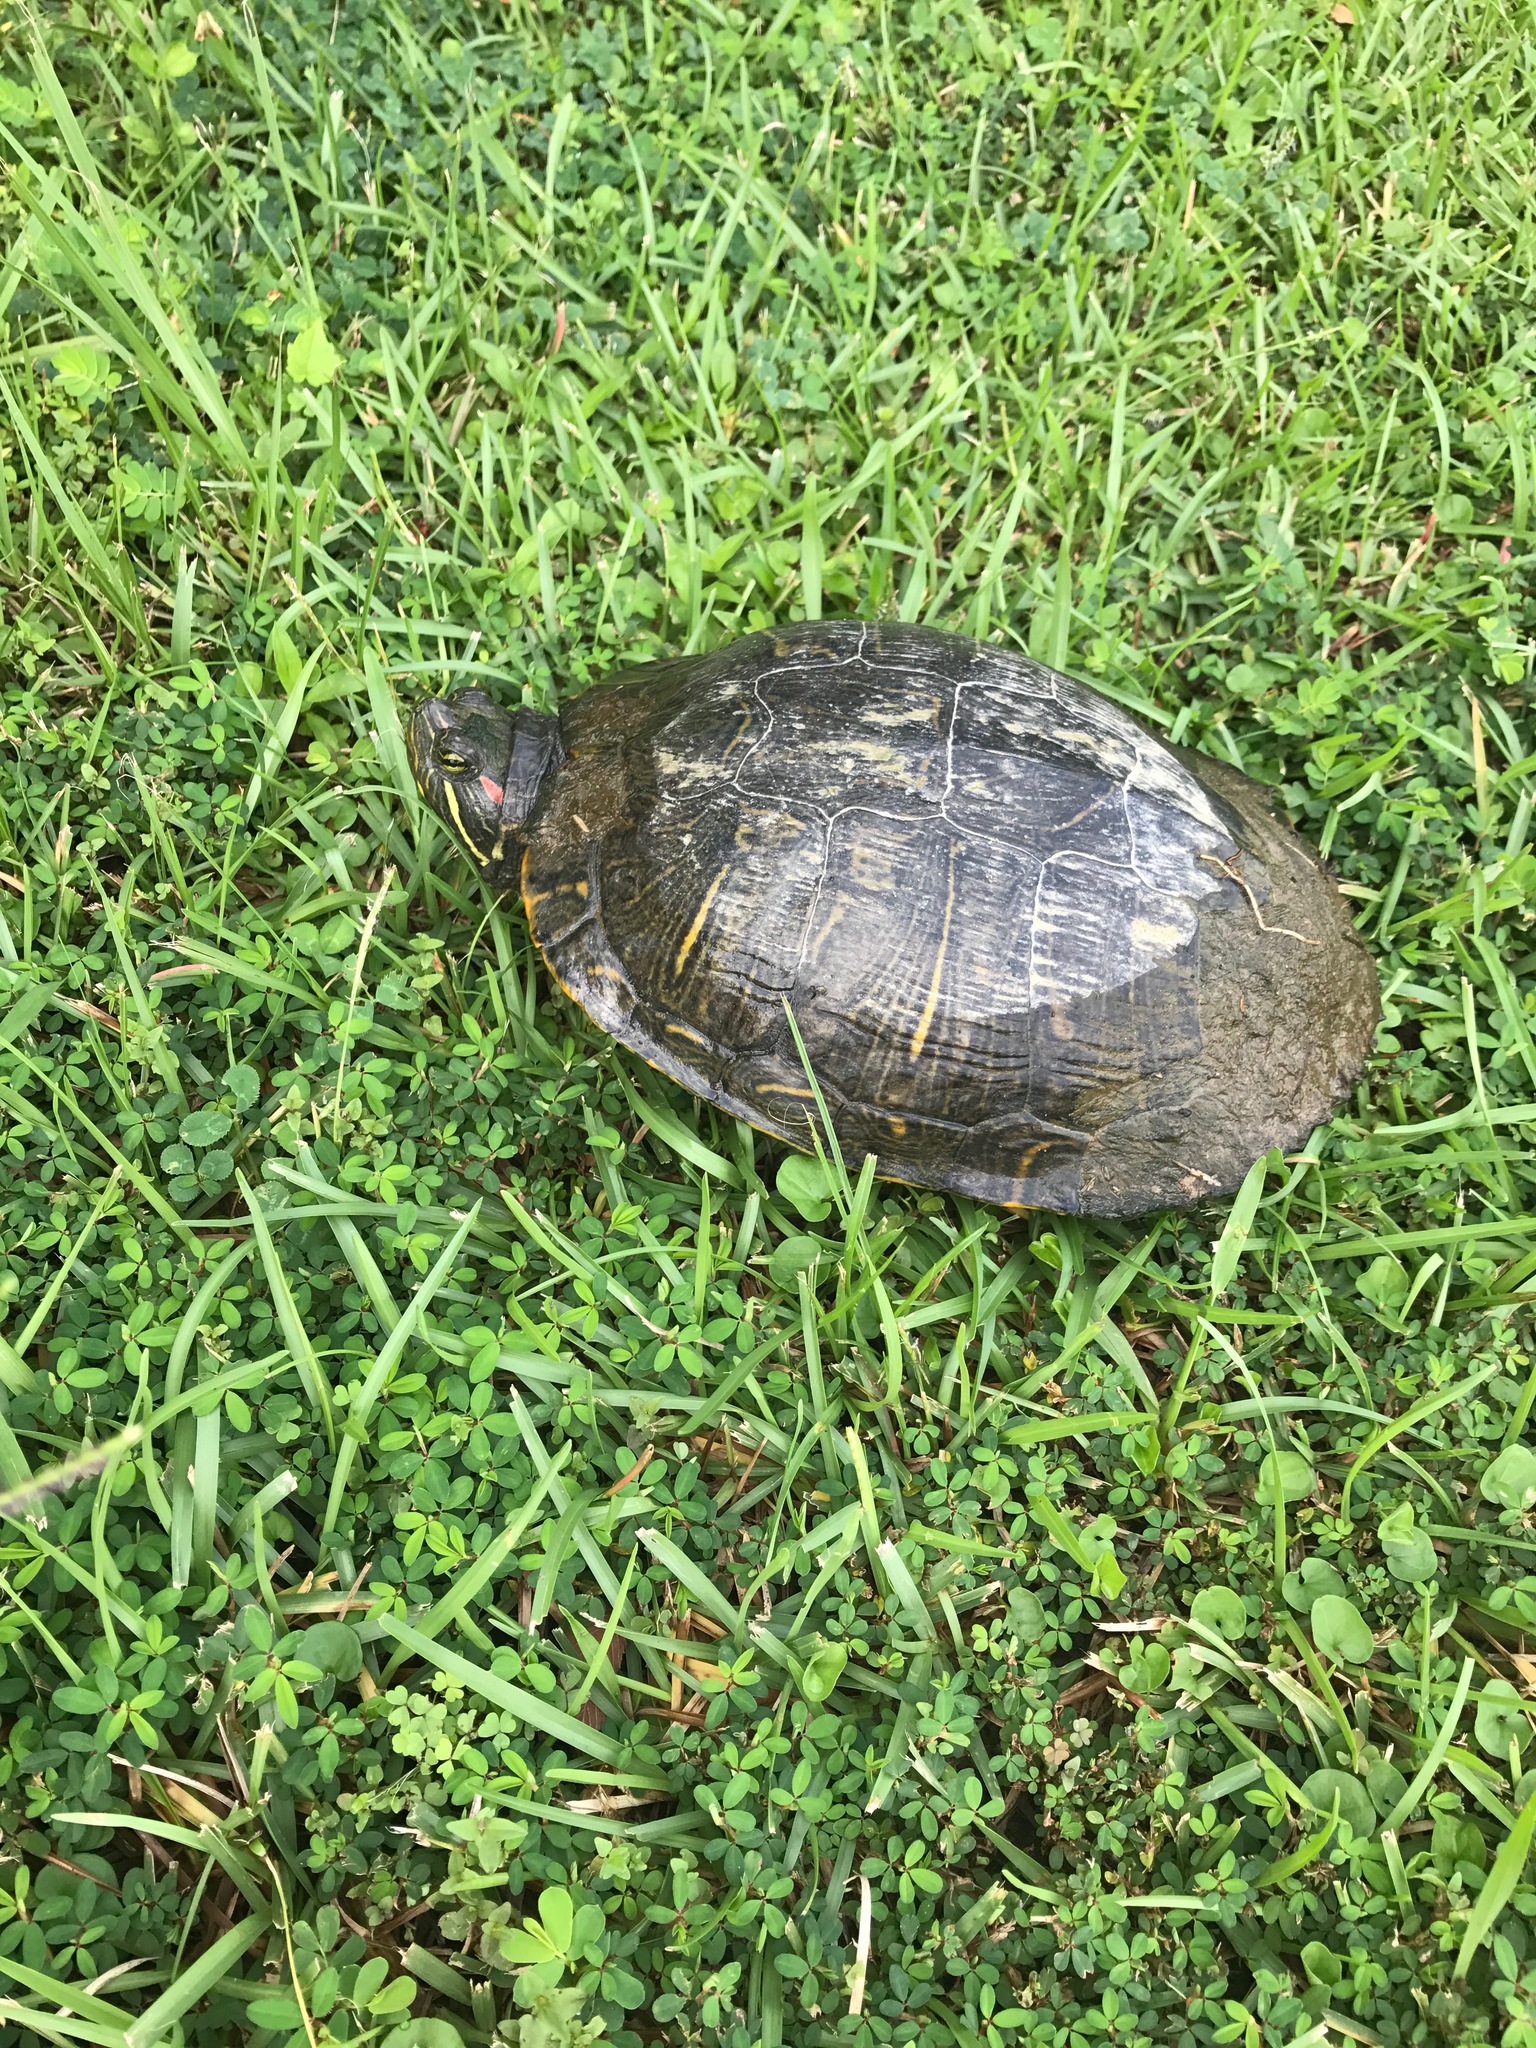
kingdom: Animalia
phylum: Chordata
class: Testudines
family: Emydidae
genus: Trachemys
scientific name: Trachemys scripta
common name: Slider
